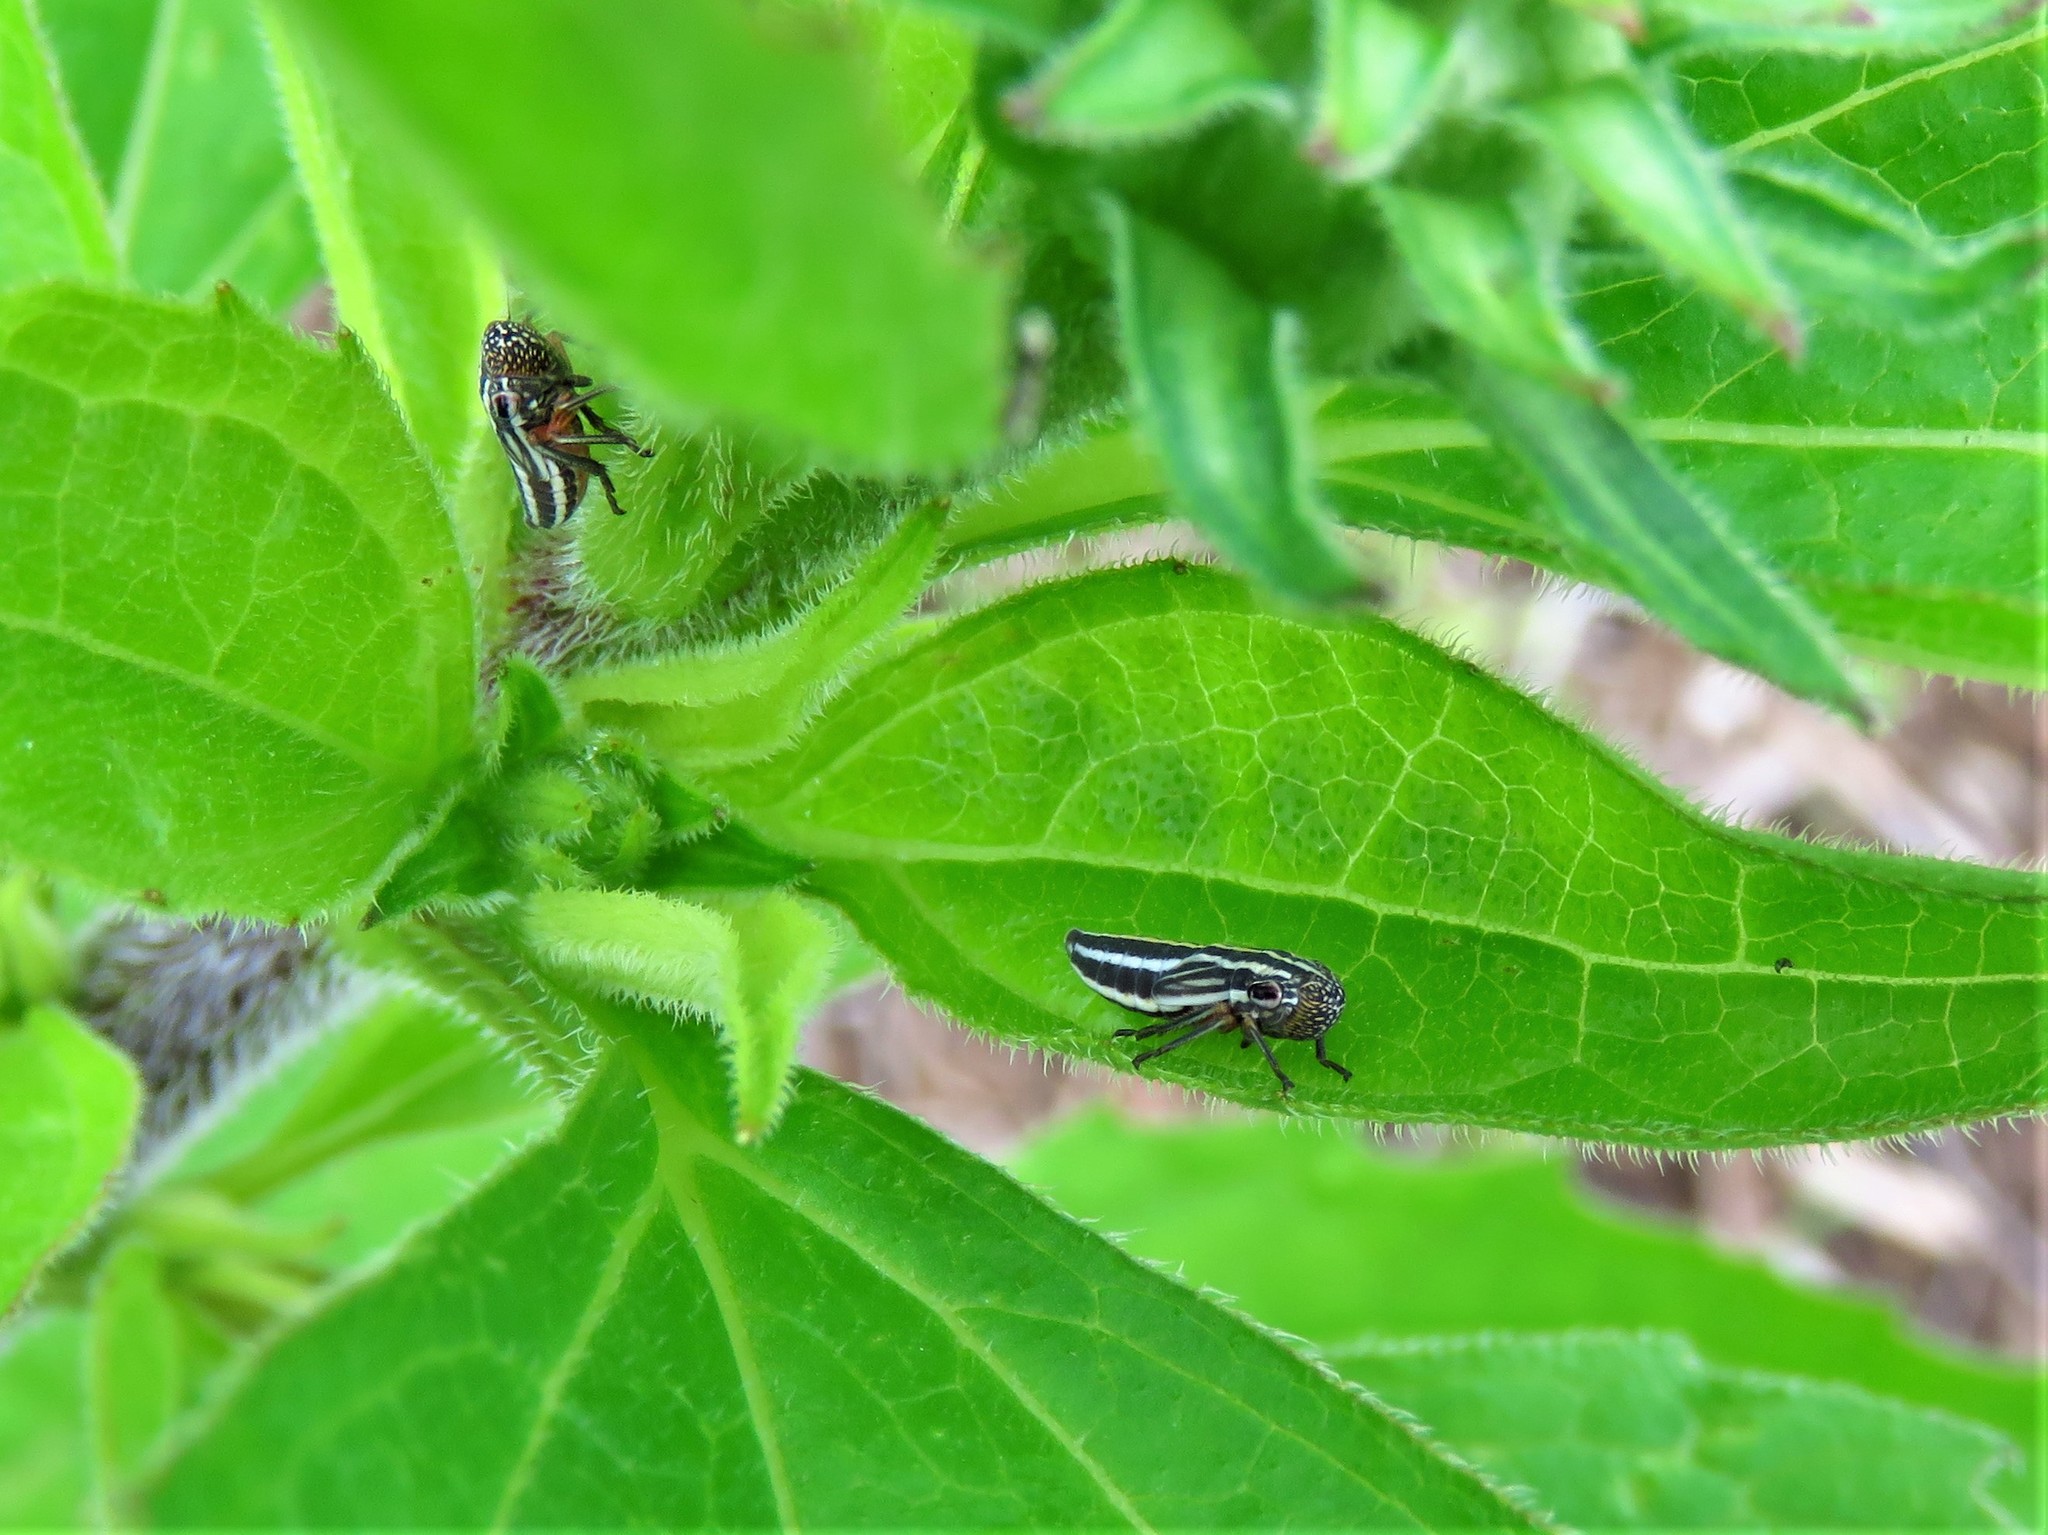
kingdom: Animalia
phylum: Arthropoda
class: Insecta
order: Hemiptera
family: Cicadellidae
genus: Cuerna
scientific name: Cuerna costalis
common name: Lateral-lined sharpshooter
